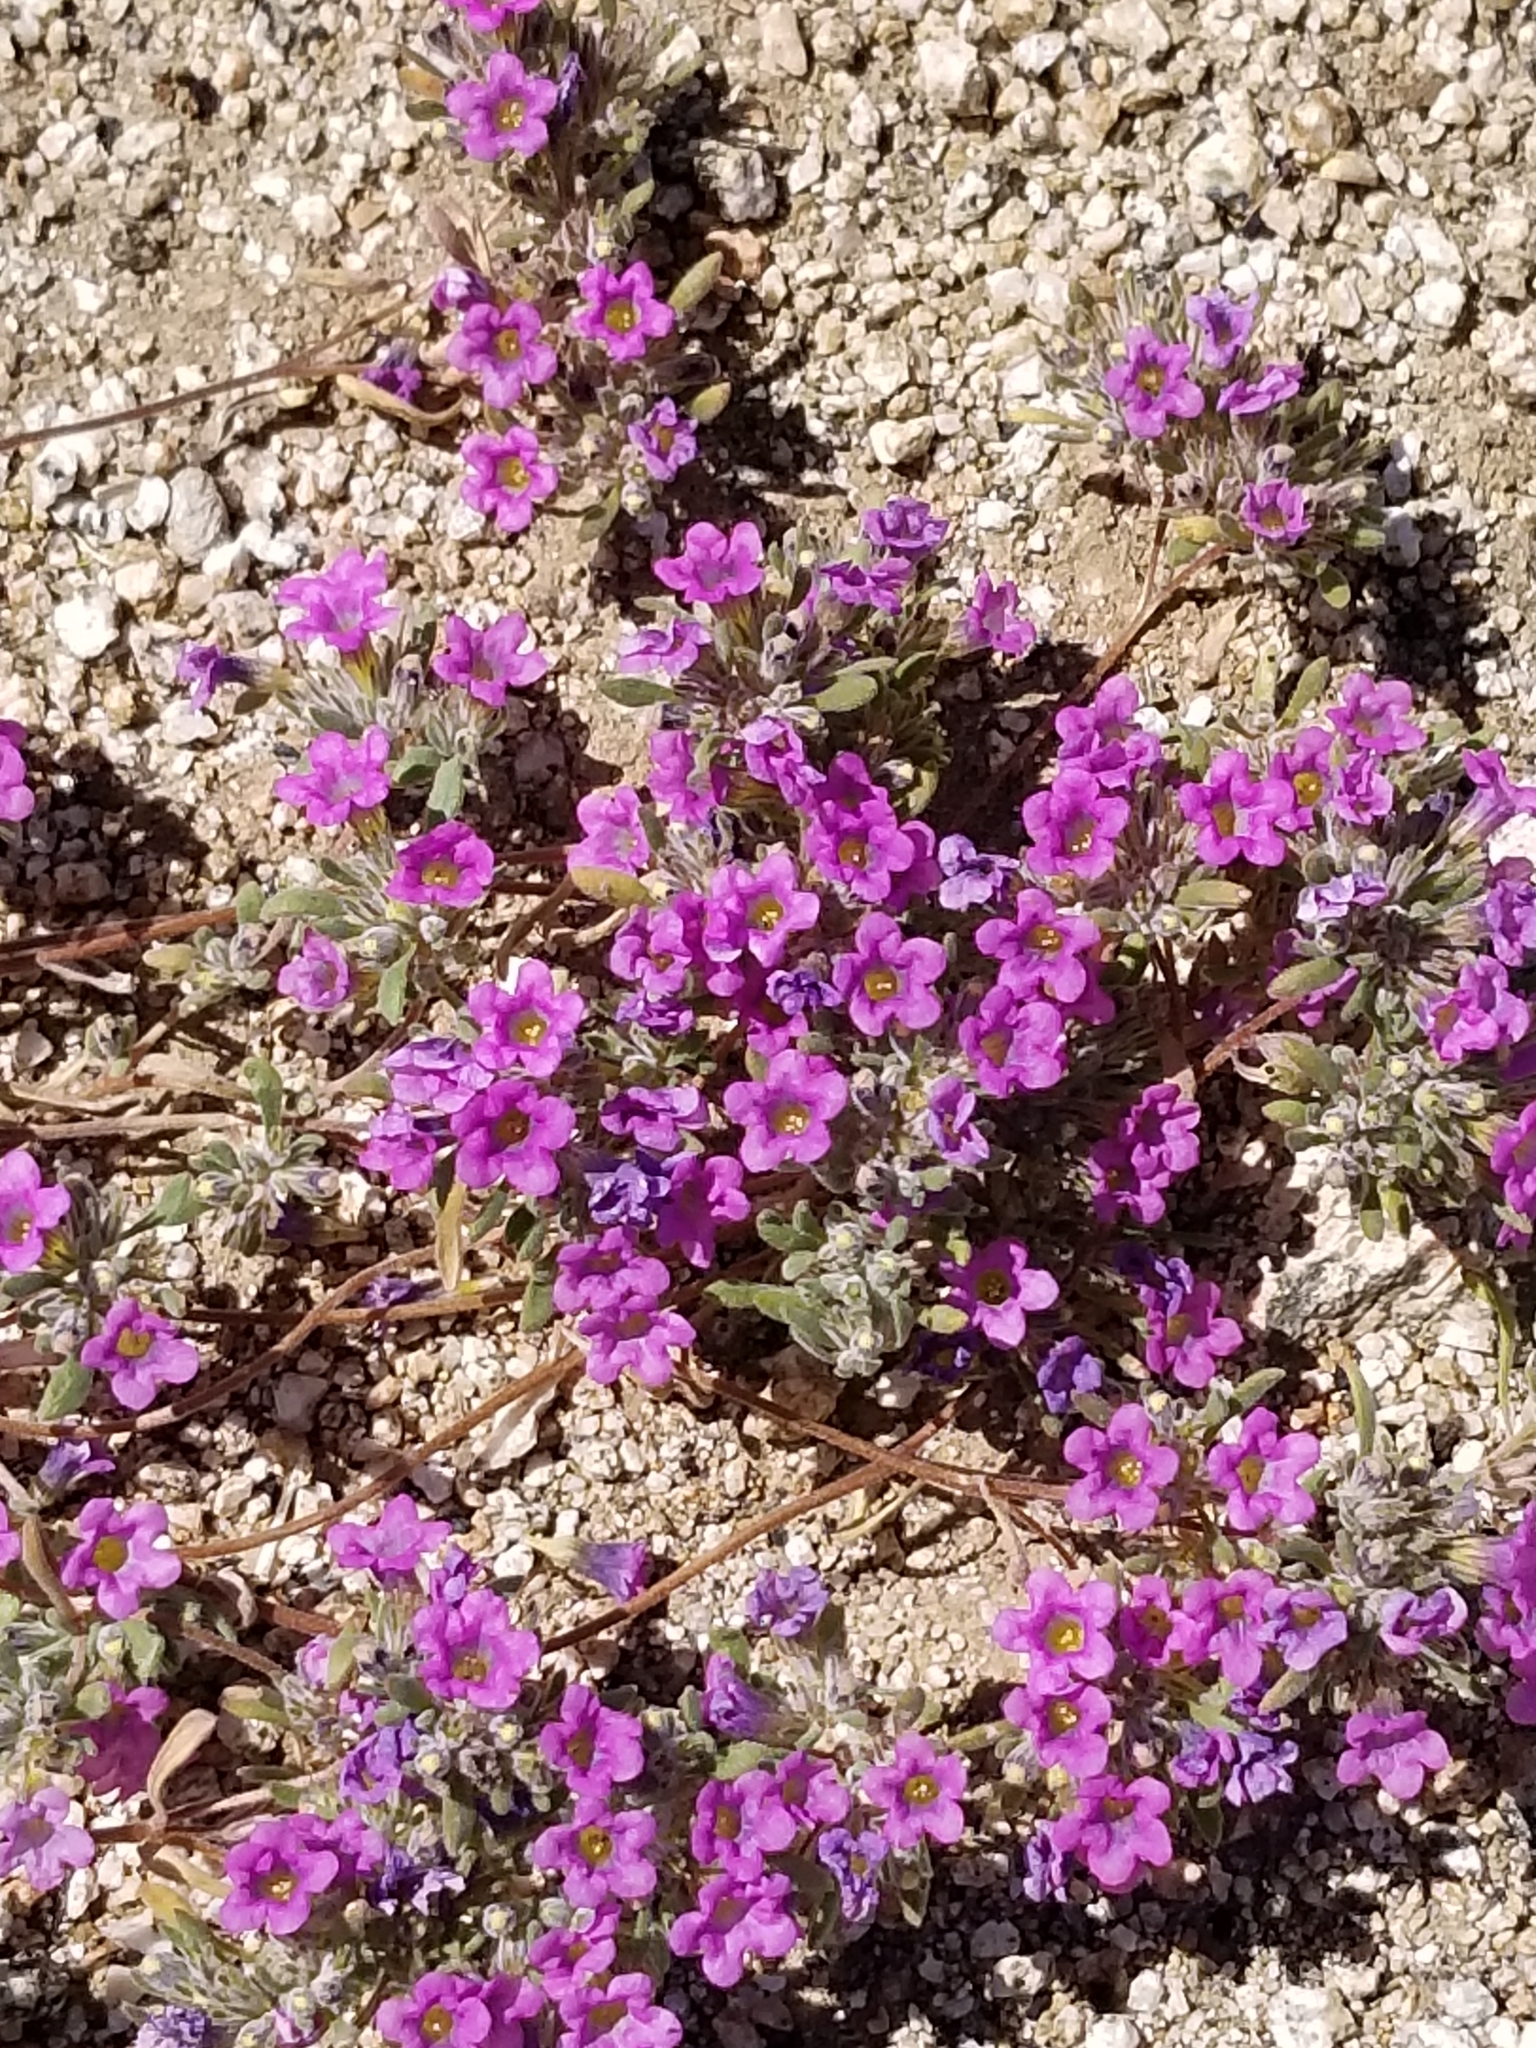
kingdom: Plantae
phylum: Tracheophyta
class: Magnoliopsida
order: Boraginales
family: Namaceae
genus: Nama
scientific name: Nama demissa
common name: Leafy nama
